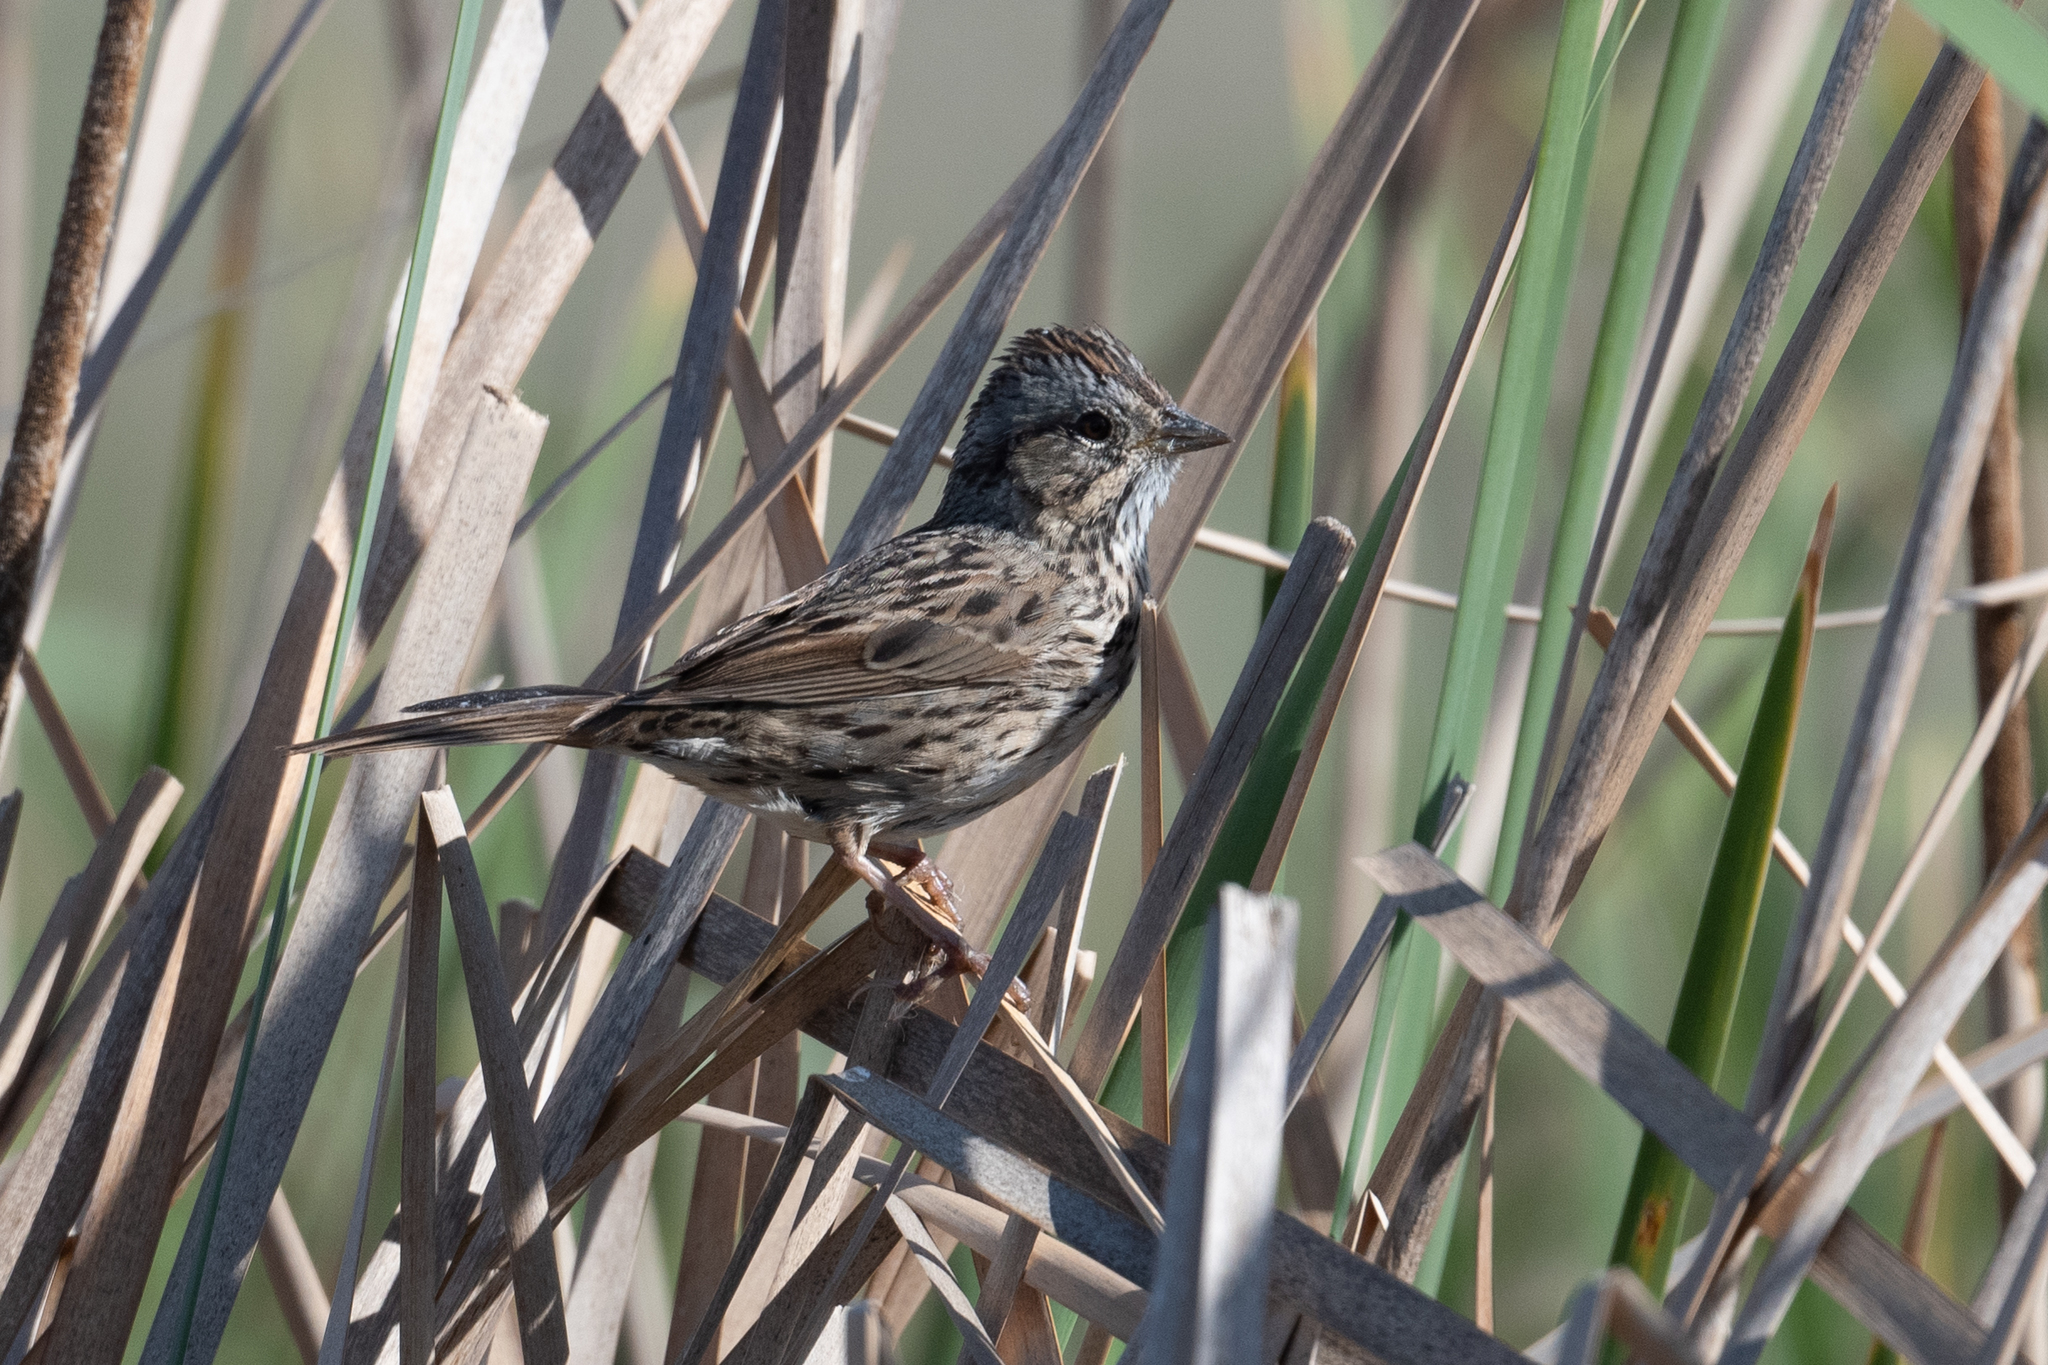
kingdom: Animalia
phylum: Chordata
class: Aves
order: Passeriformes
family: Passerellidae
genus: Melospiza
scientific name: Melospiza lincolnii
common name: Lincoln's sparrow
